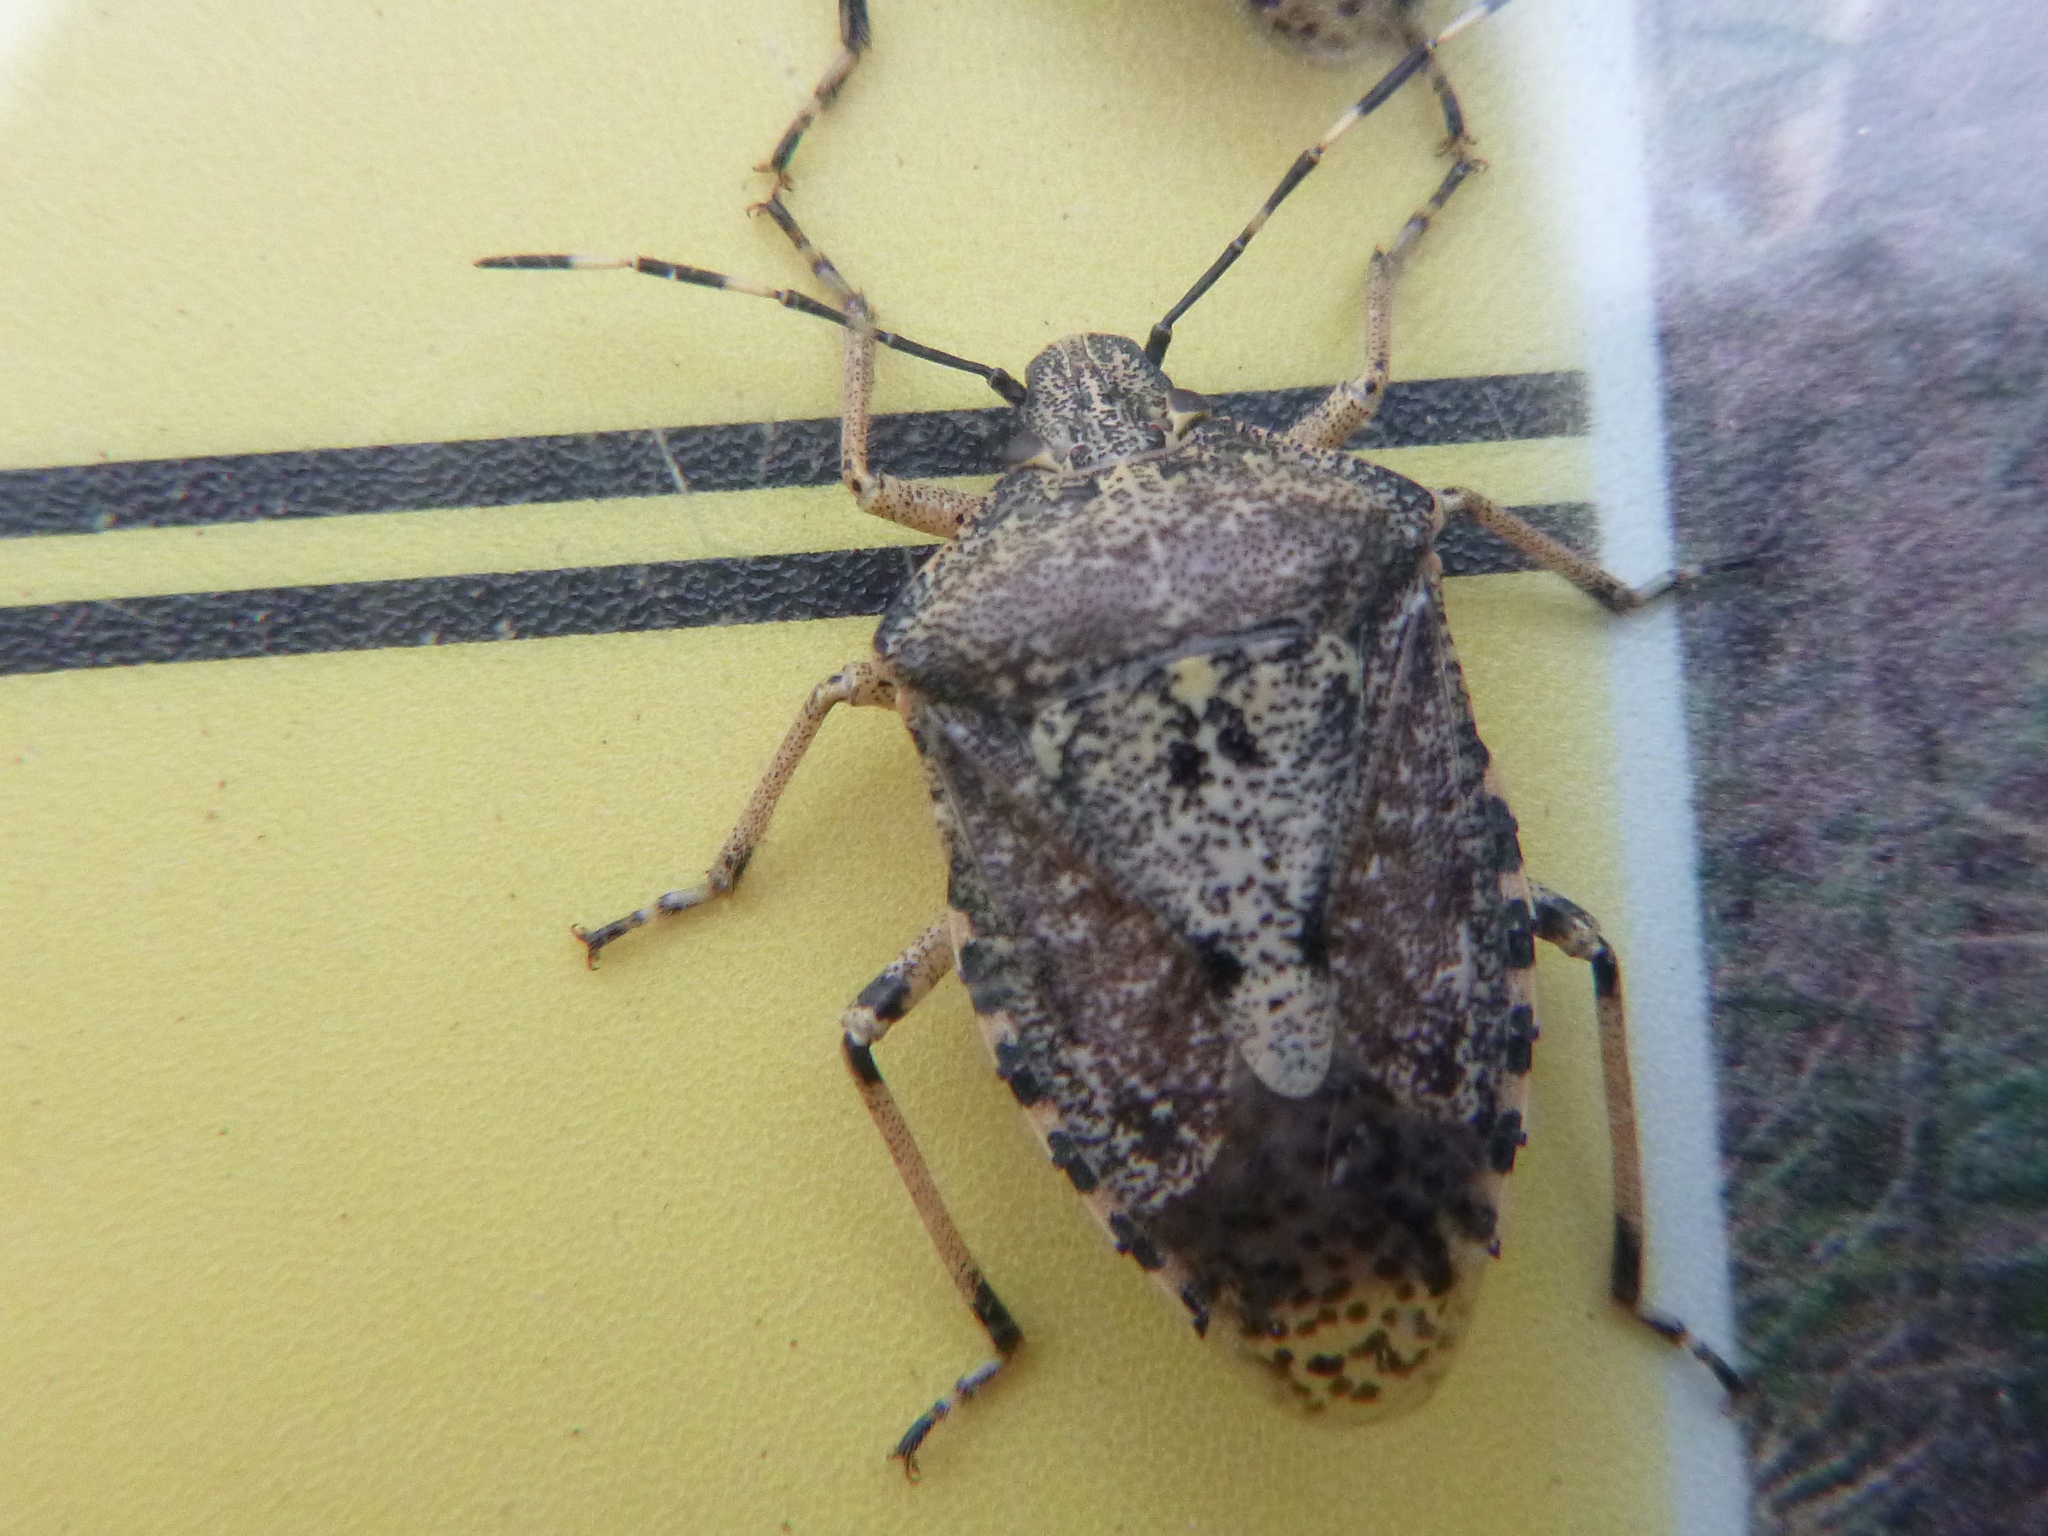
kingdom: Animalia
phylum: Arthropoda
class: Insecta
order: Hemiptera
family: Pentatomidae
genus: Rhaphigaster
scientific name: Rhaphigaster nebulosa
